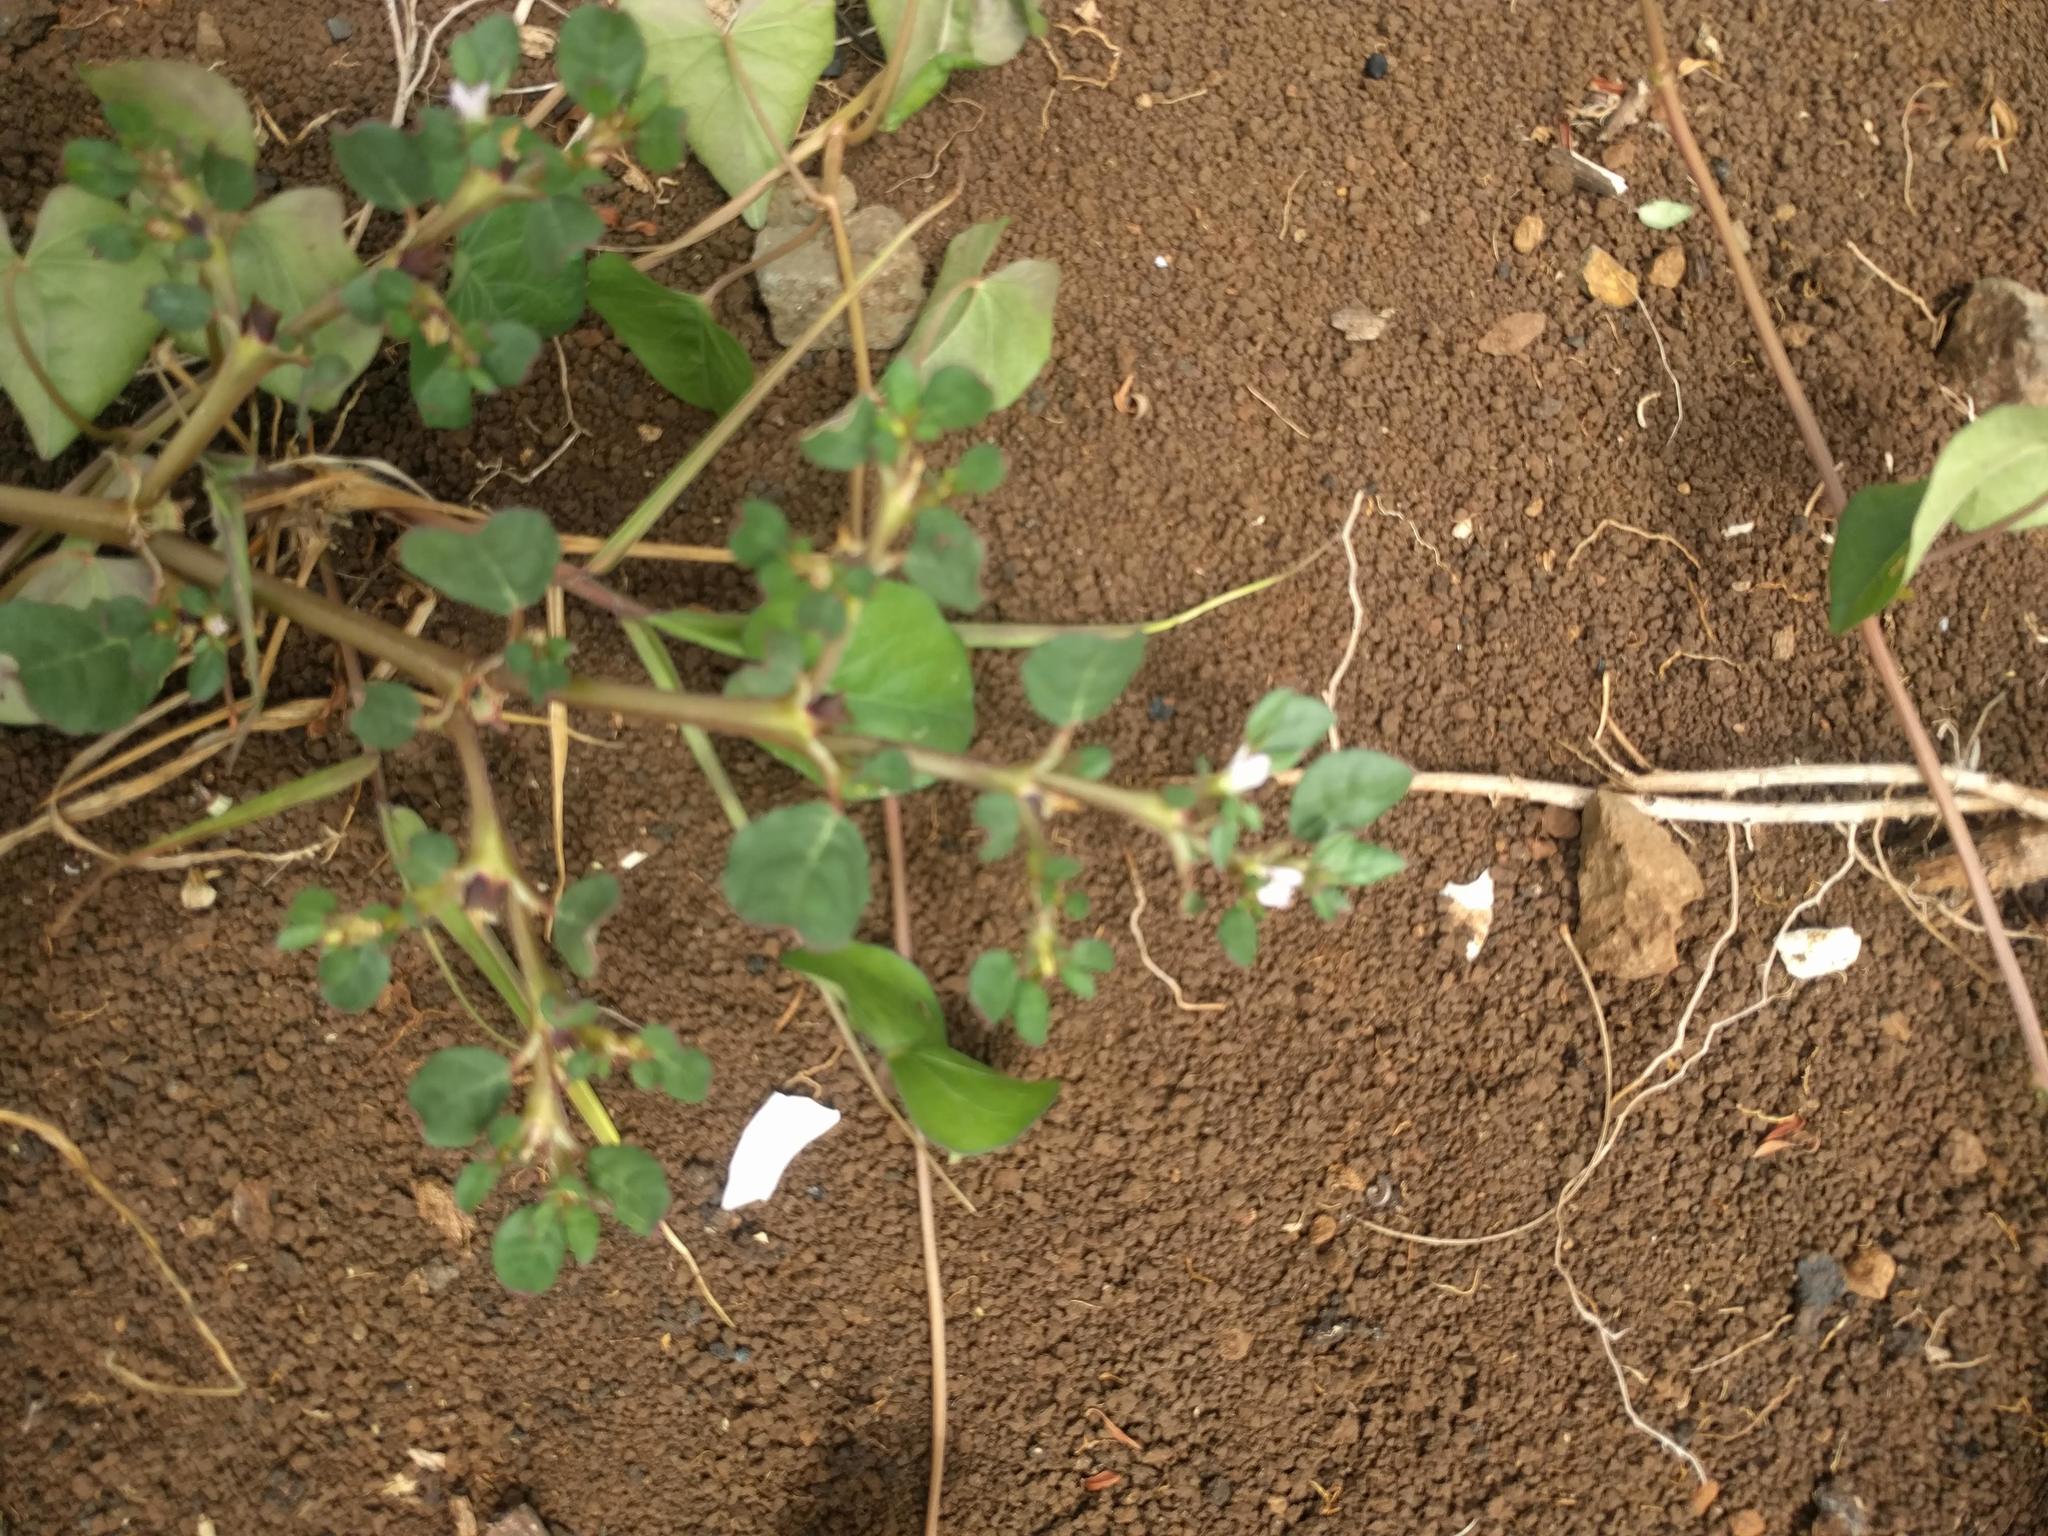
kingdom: Plantae
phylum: Tracheophyta
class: Magnoliopsida
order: Caryophyllales
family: Aizoaceae
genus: Trianthema
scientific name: Trianthema portulacastrum
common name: Desert horsepurslane
